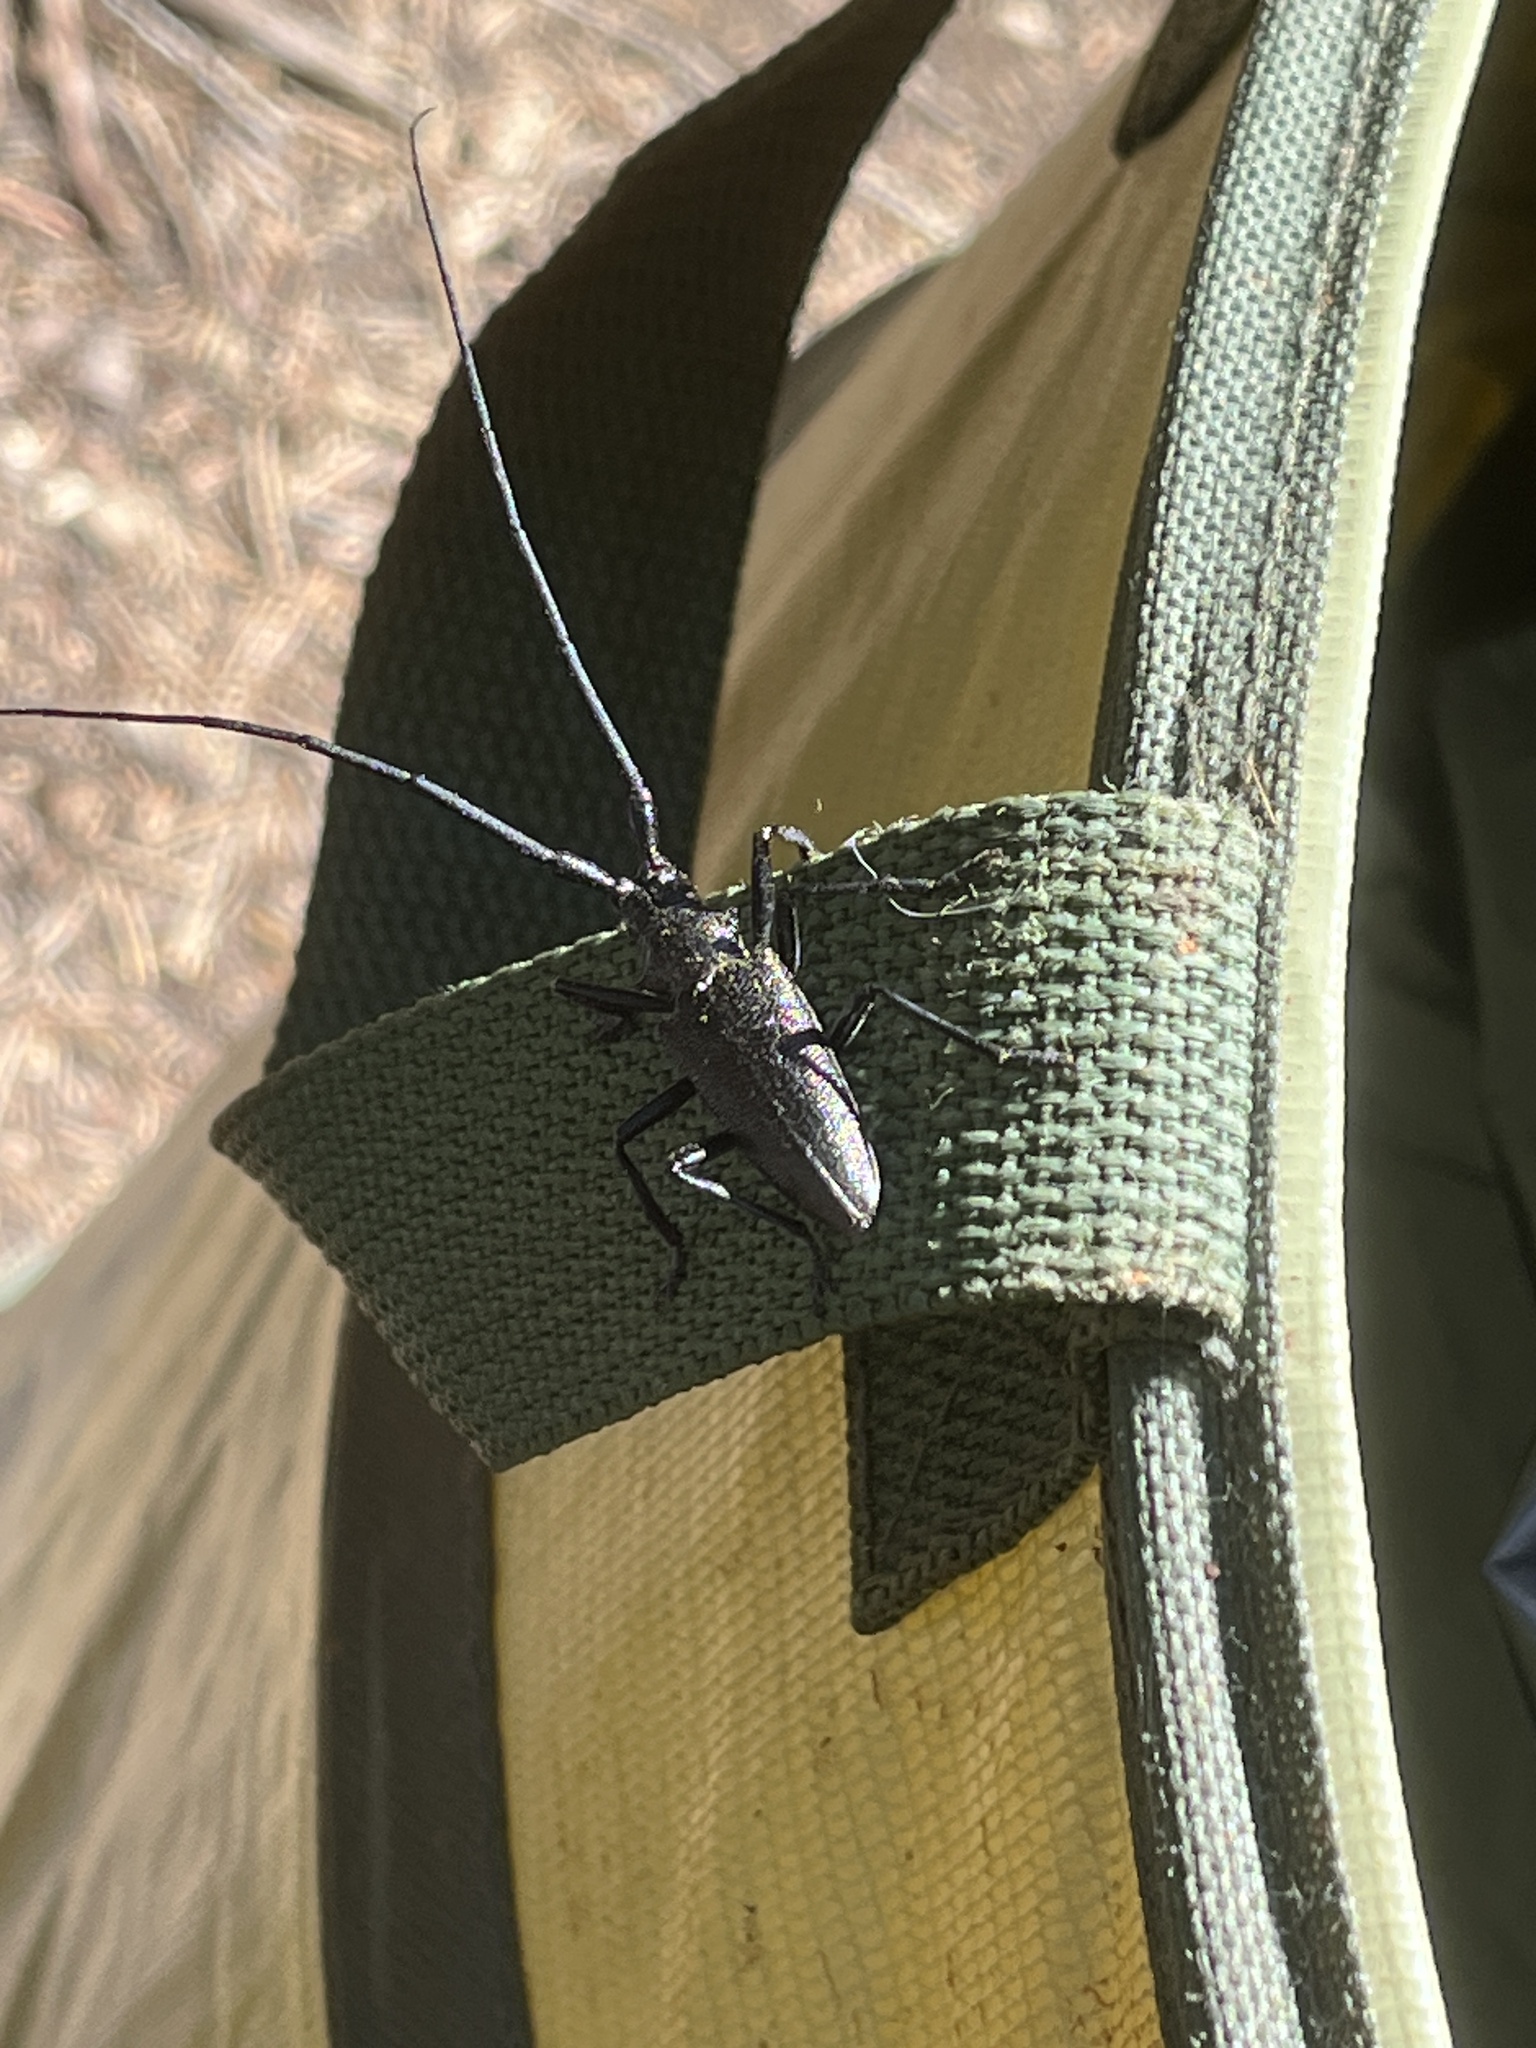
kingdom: Animalia
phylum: Arthropoda
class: Insecta
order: Coleoptera
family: Cerambycidae
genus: Monochamus
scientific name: Monochamus scutellatus
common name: White-spotted sawyer beetle
